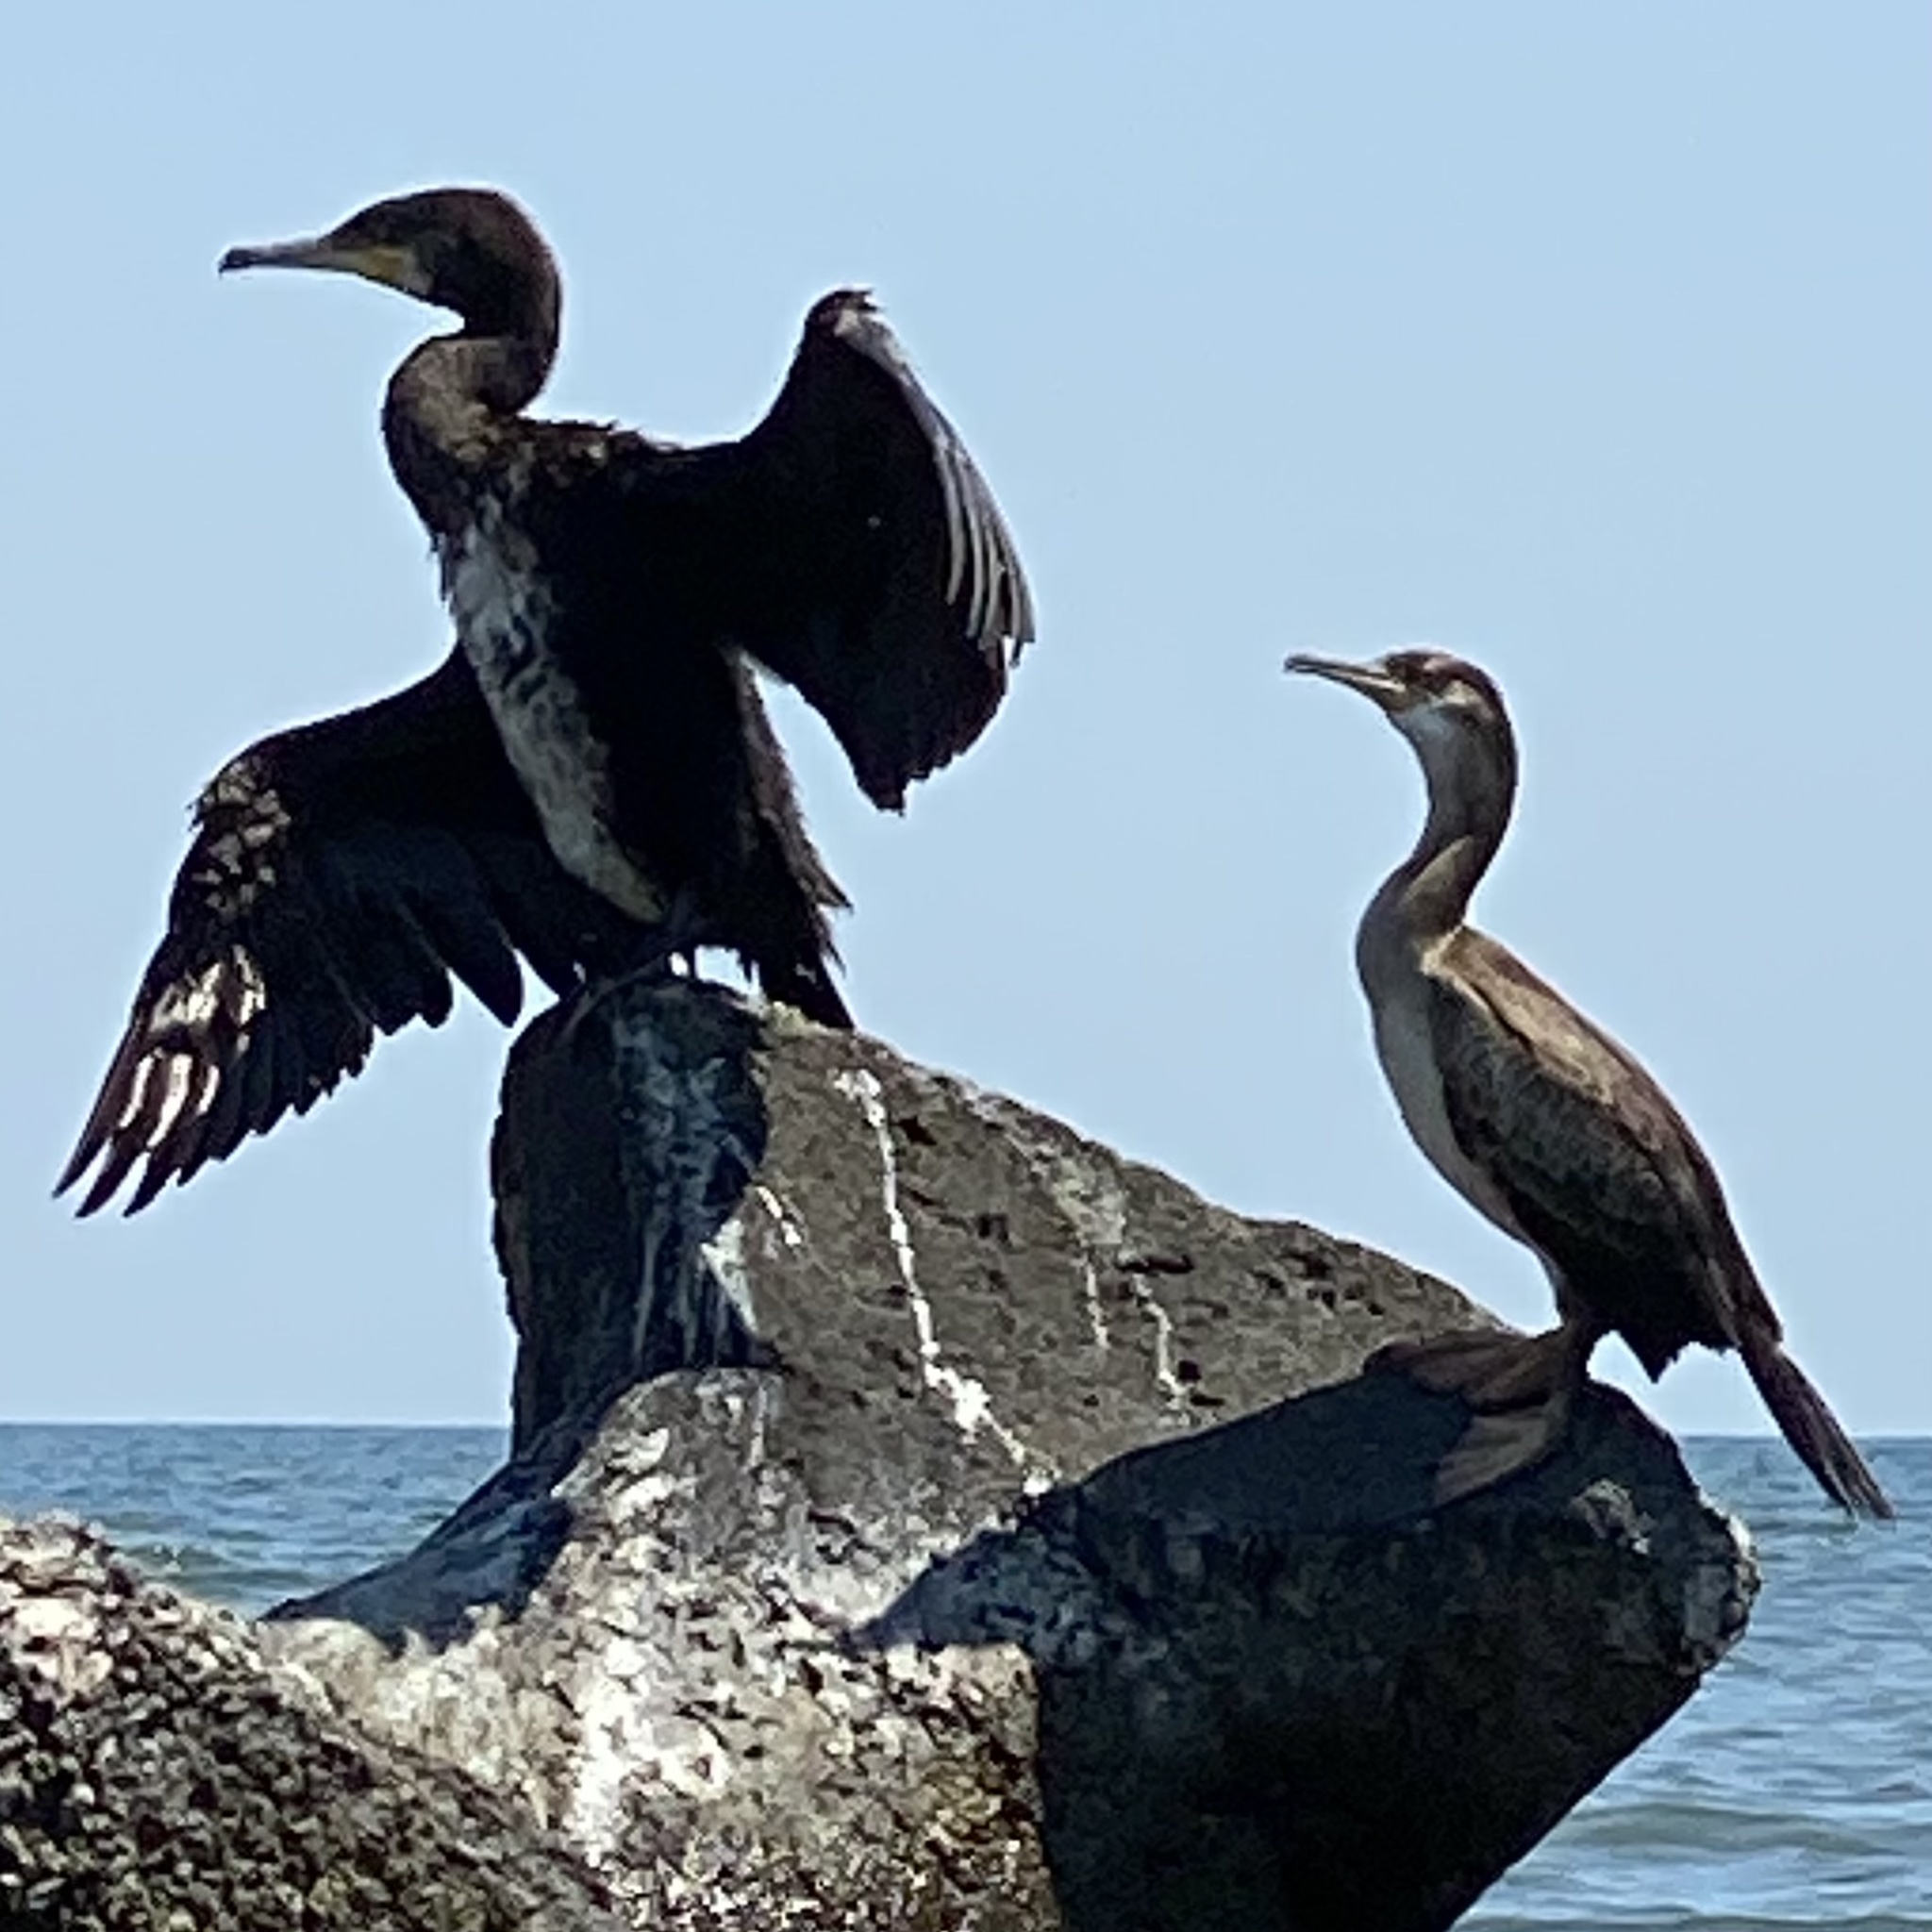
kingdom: Animalia
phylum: Chordata
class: Aves
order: Suliformes
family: Phalacrocoracidae
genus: Phalacrocorax
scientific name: Phalacrocorax carbo
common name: Great cormorant
